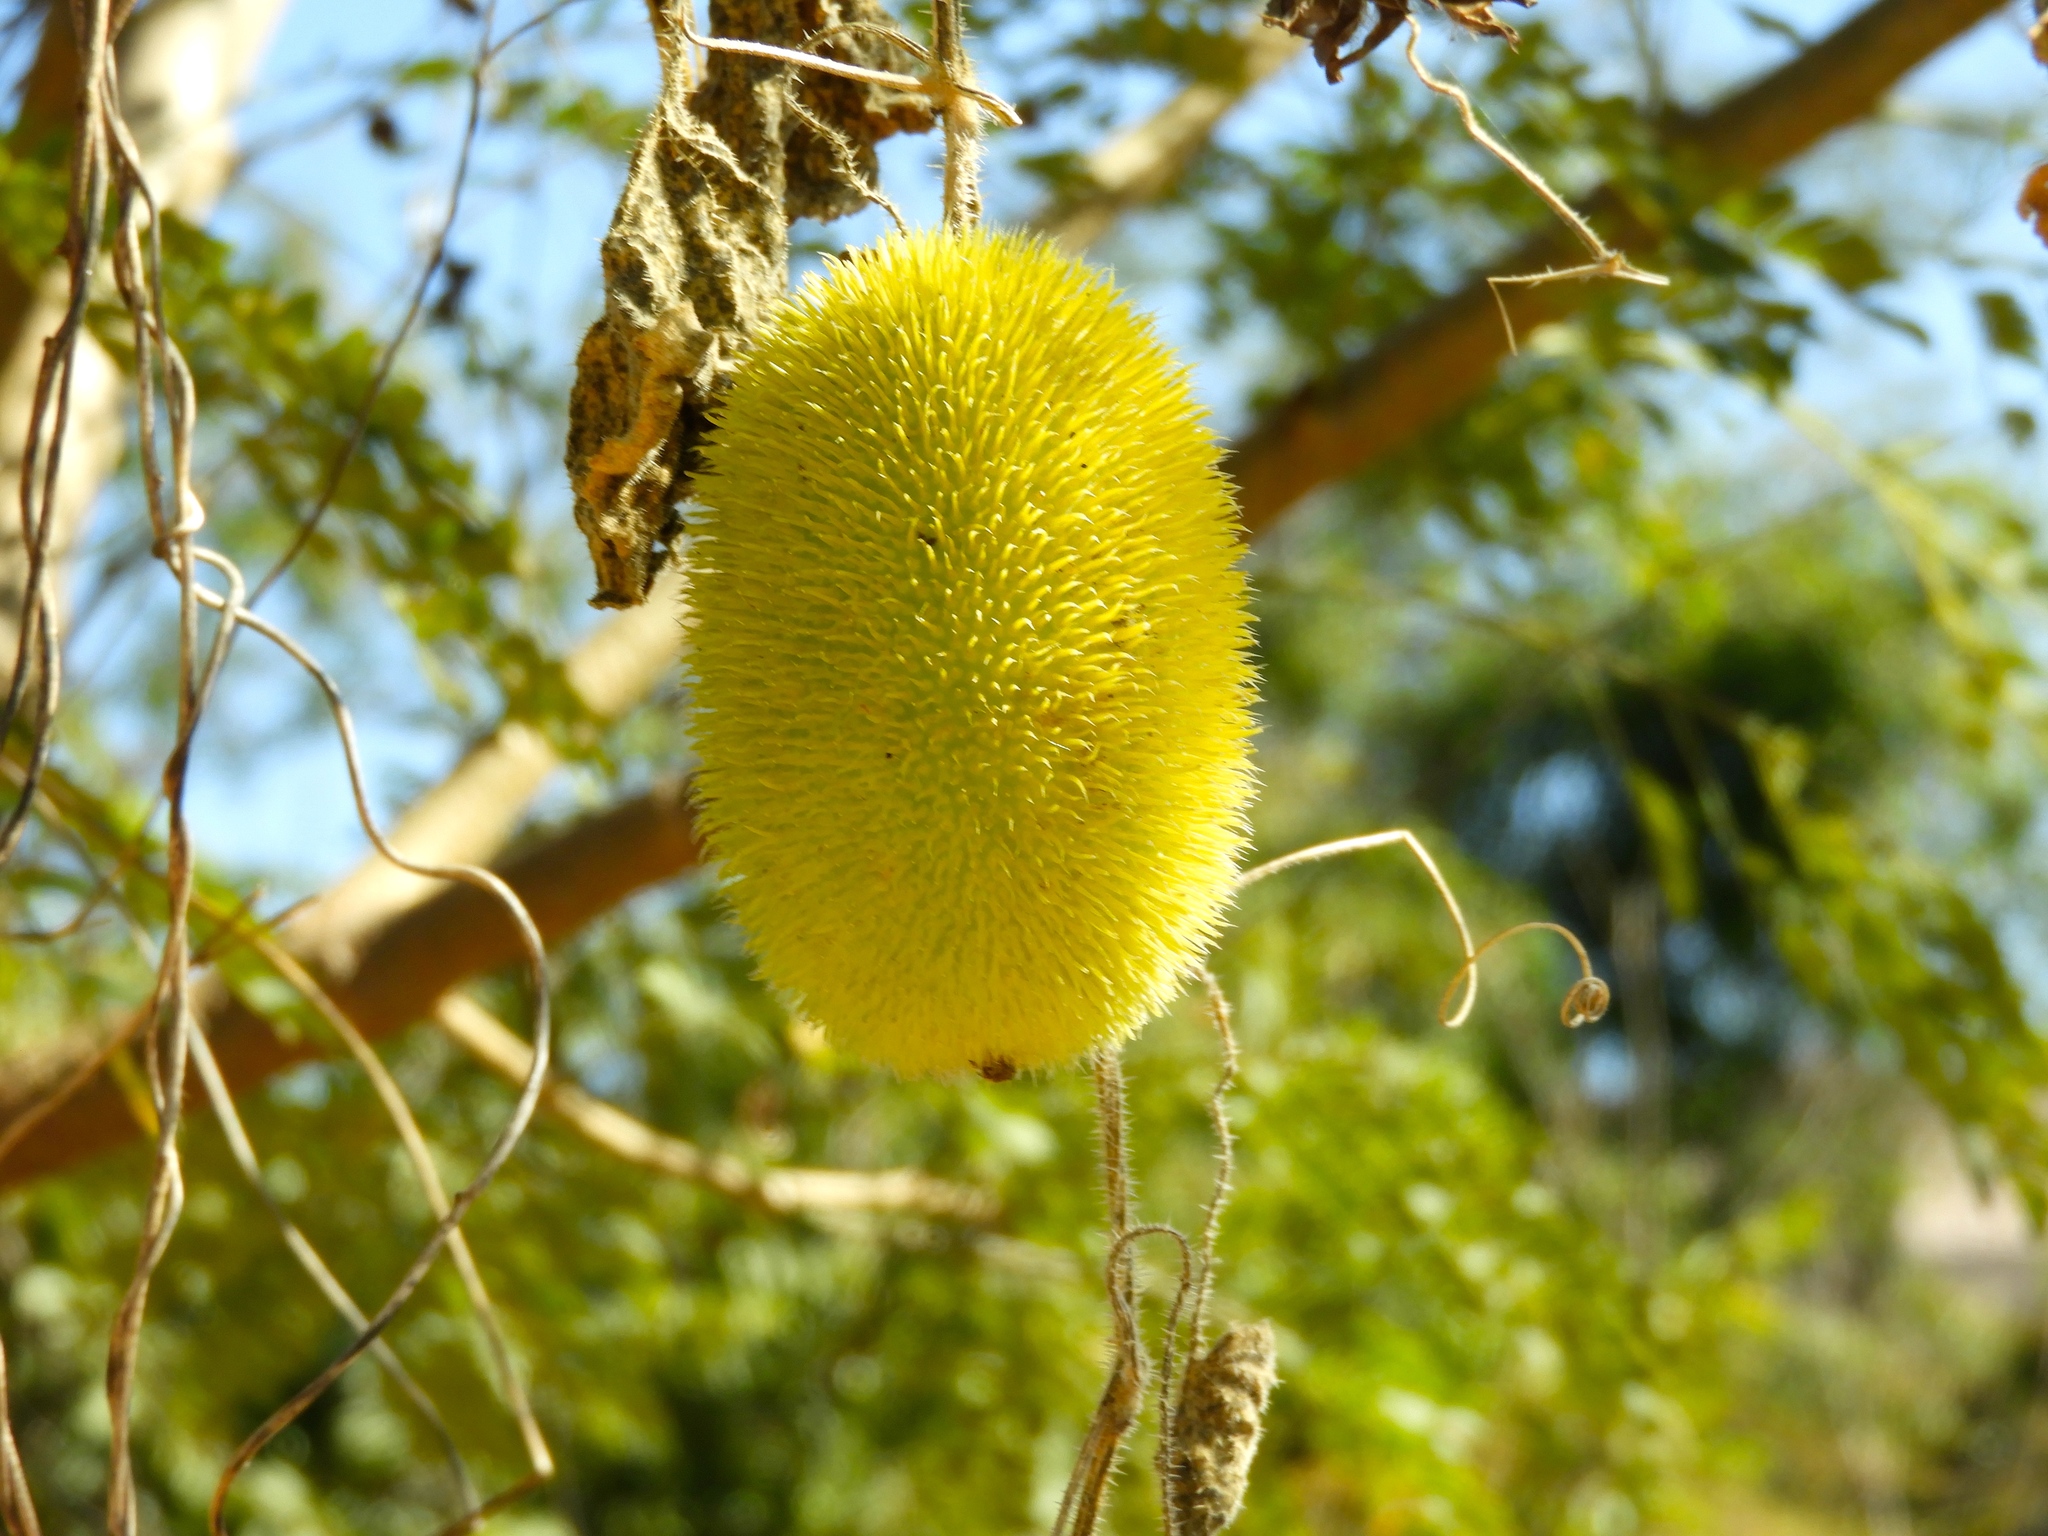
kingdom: Plantae
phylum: Tracheophyta
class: Magnoliopsida
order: Cucurbitales
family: Cucurbitaceae
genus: Cucumis
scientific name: Cucumis dipsaceus
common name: Hedgehog gourd
